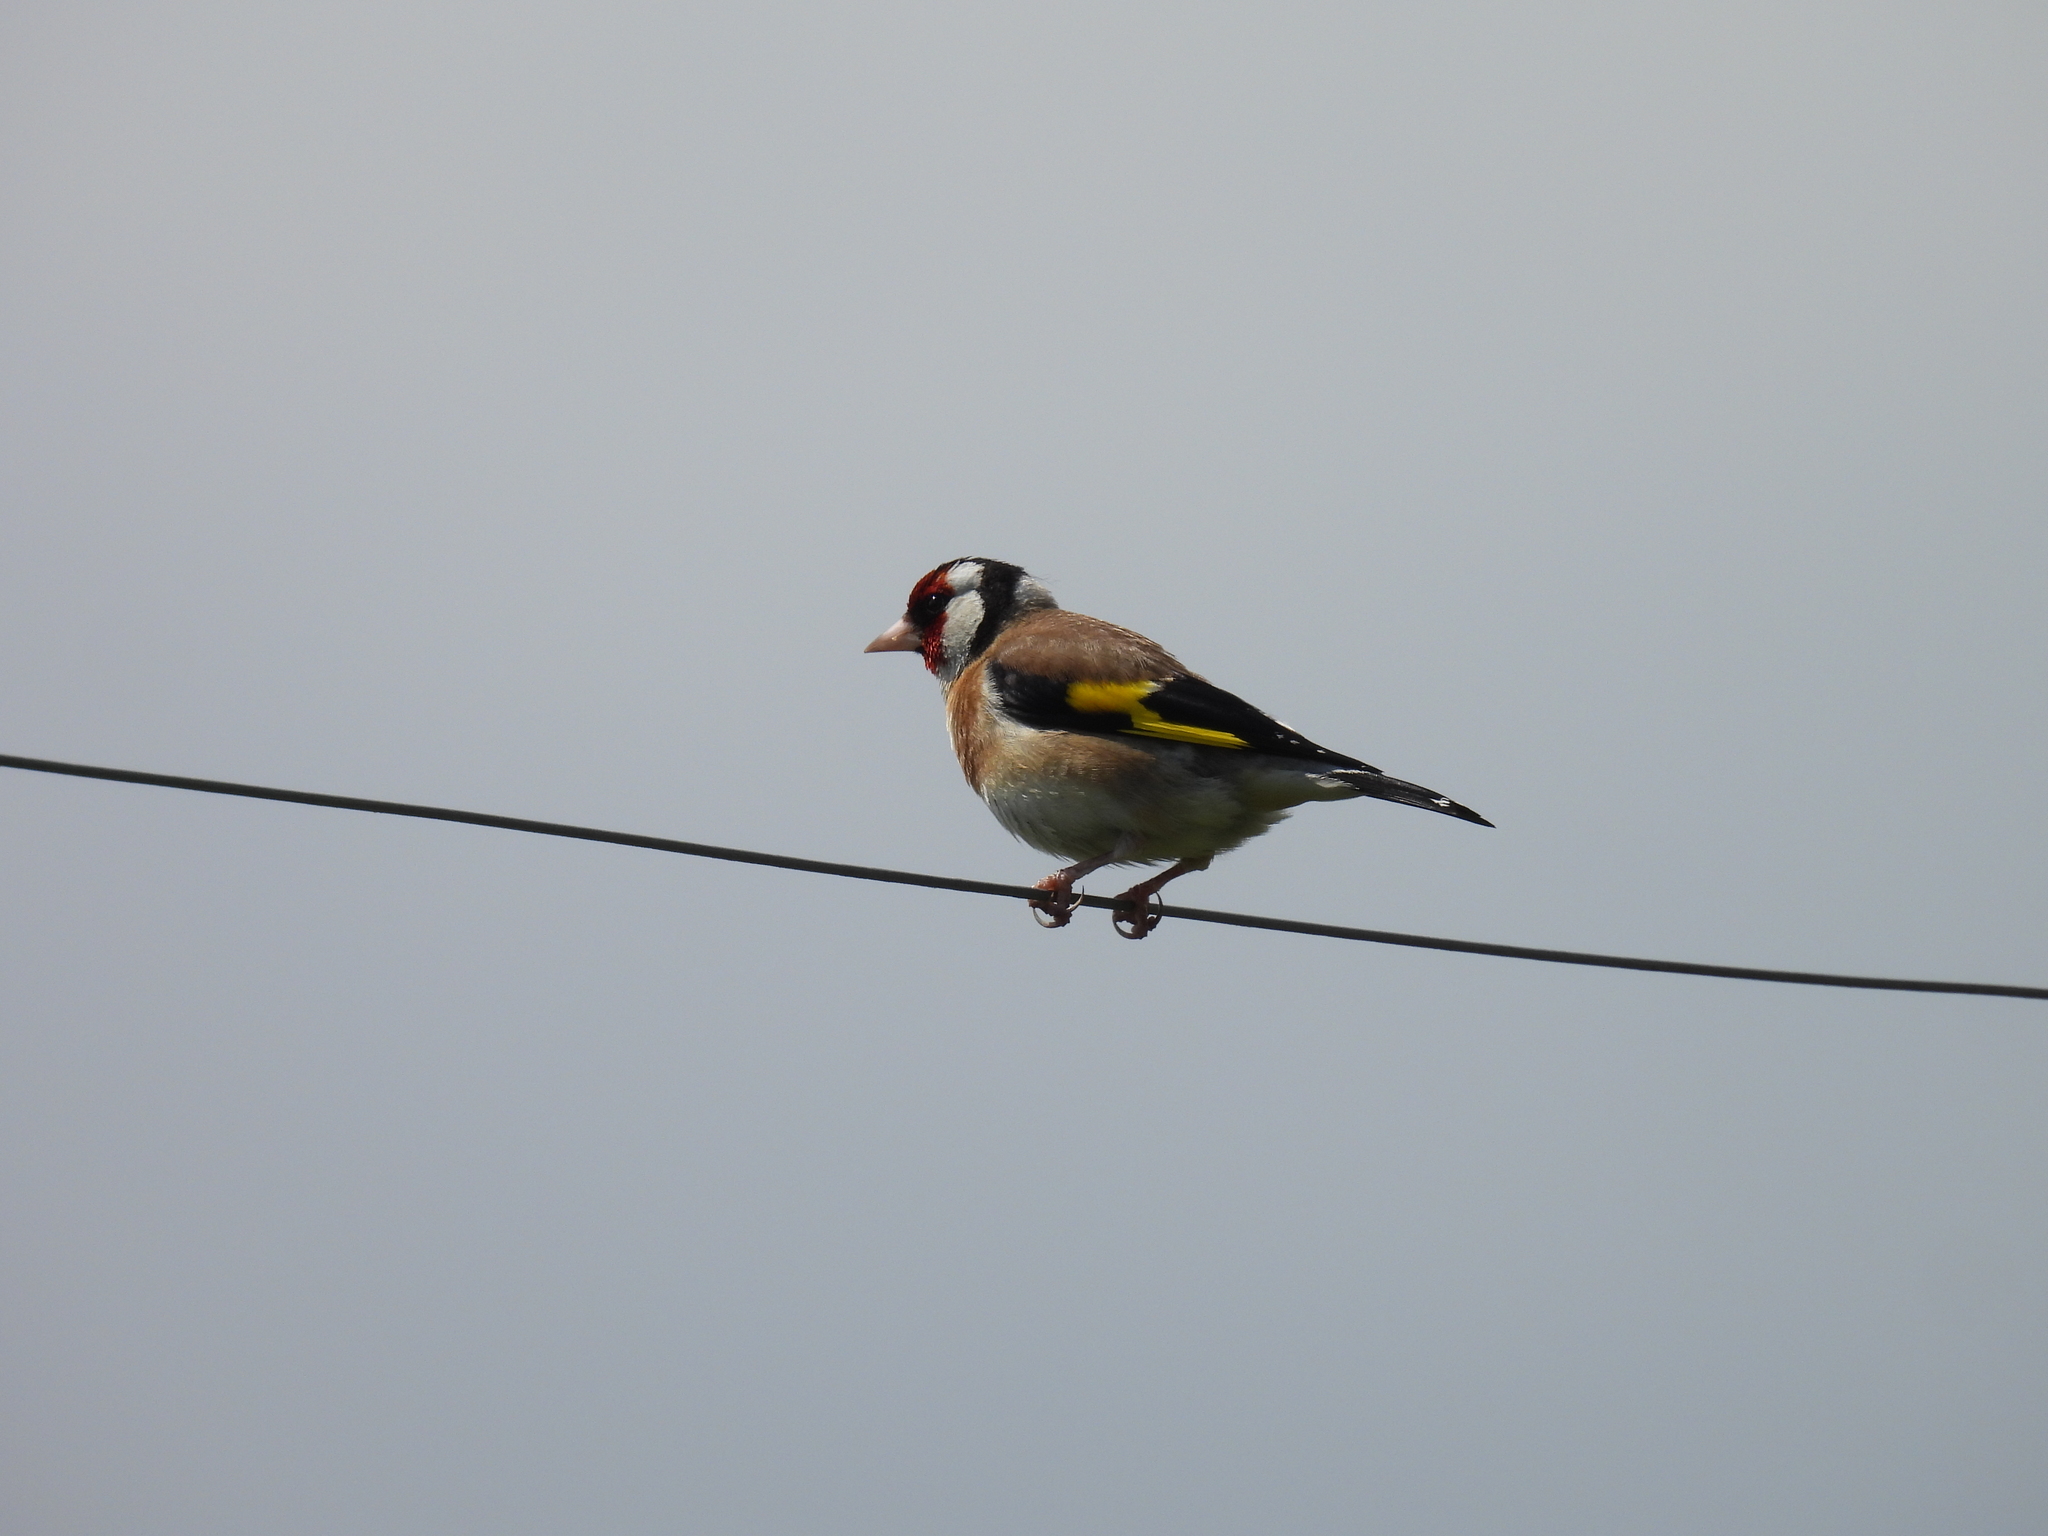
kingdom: Animalia
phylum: Chordata
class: Aves
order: Passeriformes
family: Fringillidae
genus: Carduelis
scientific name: Carduelis carduelis
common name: European goldfinch
